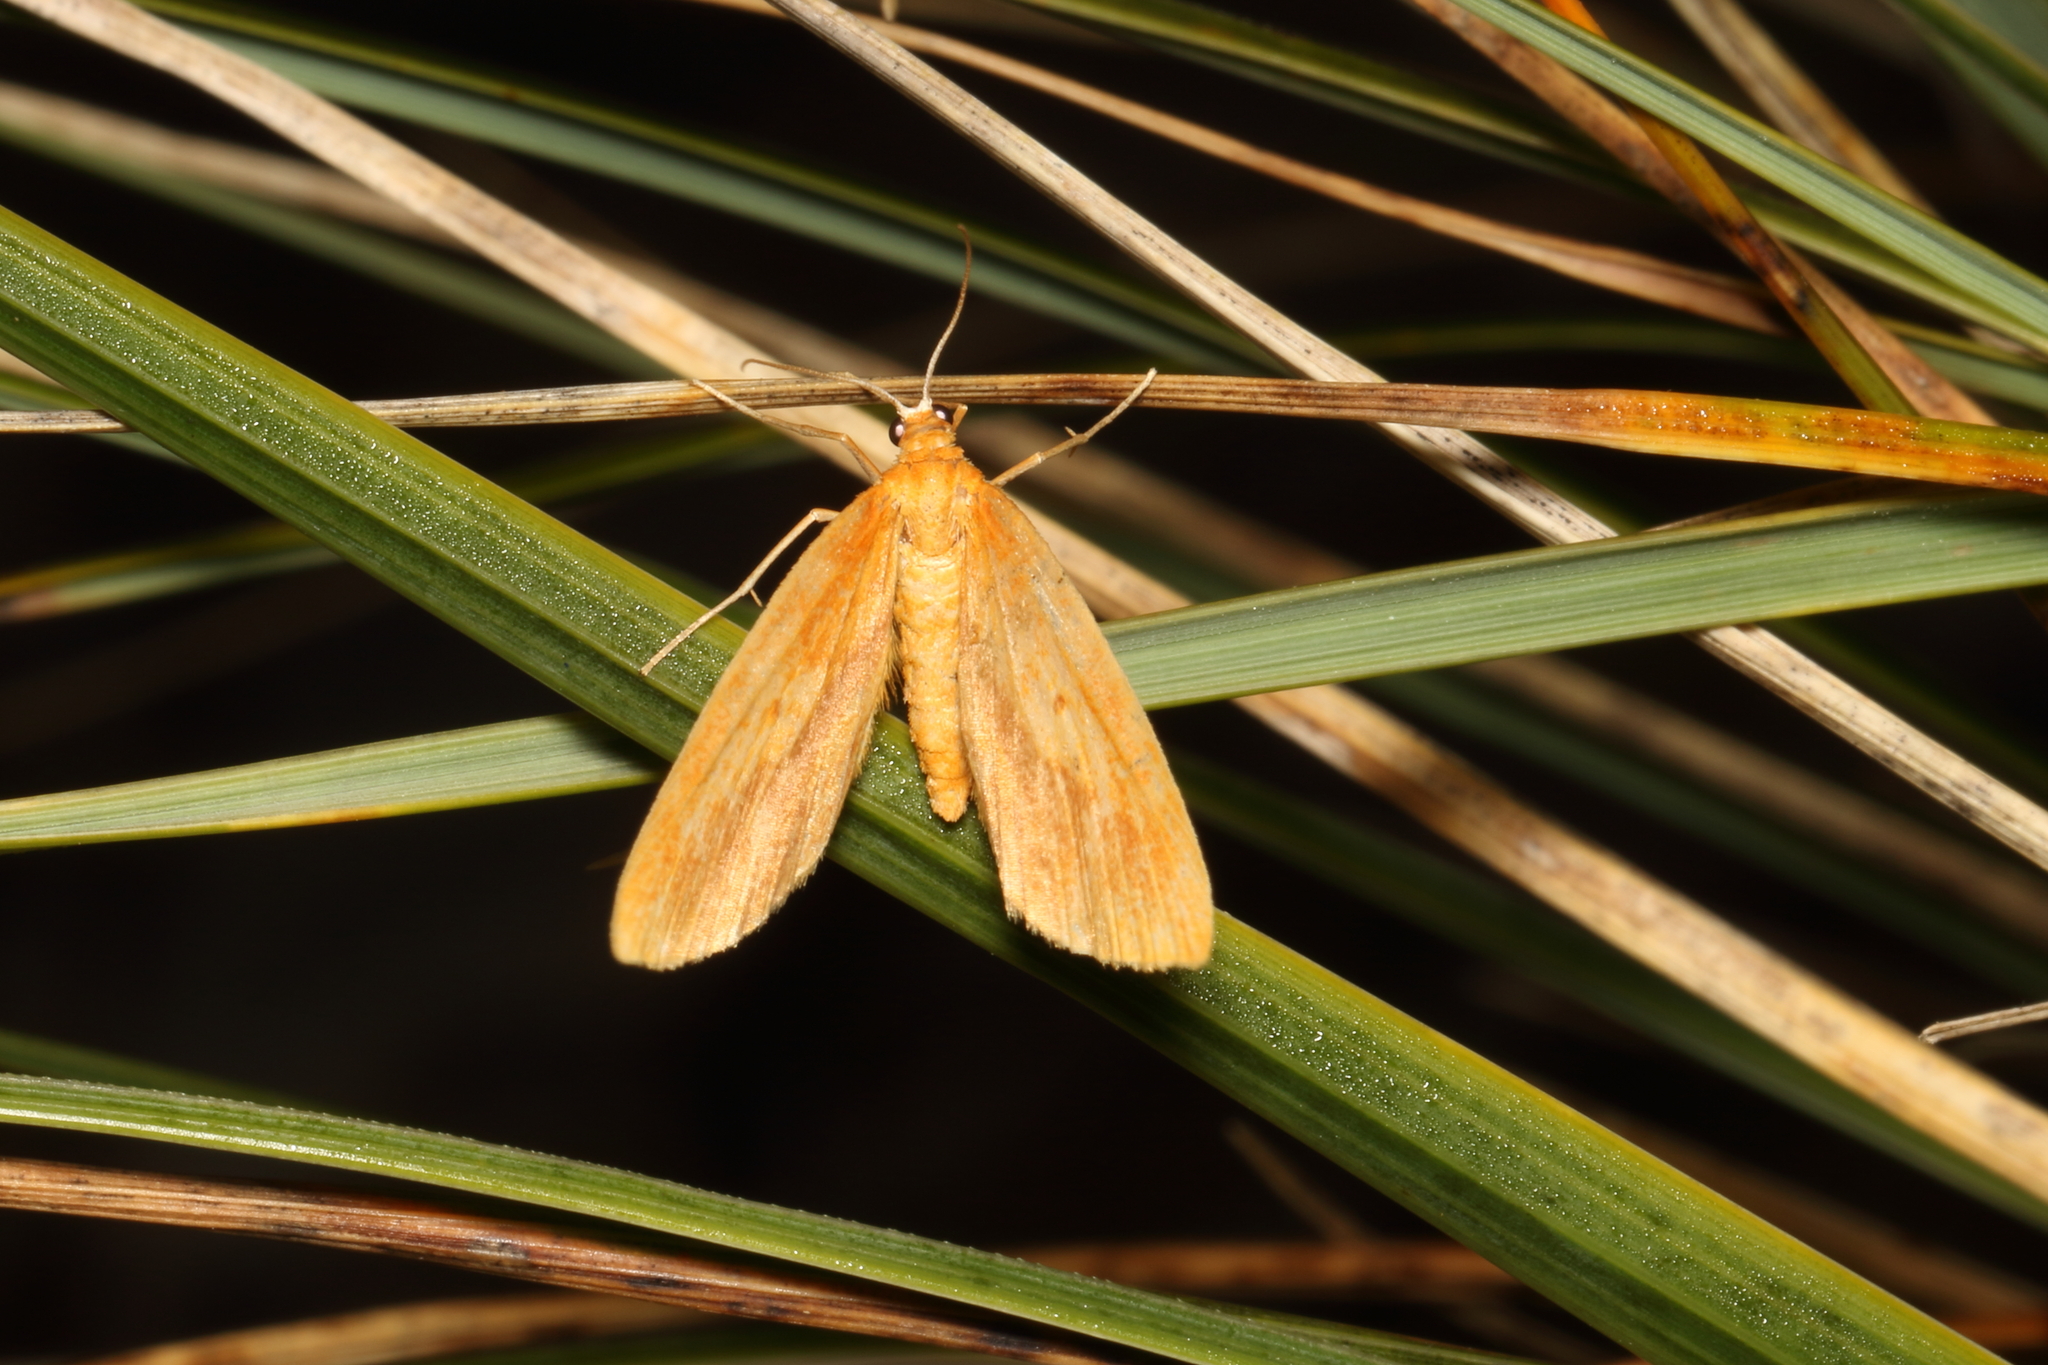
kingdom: Animalia
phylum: Arthropoda
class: Insecta
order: Lepidoptera
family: Geometridae
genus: Epiphryne
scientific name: Epiphryne charidema
